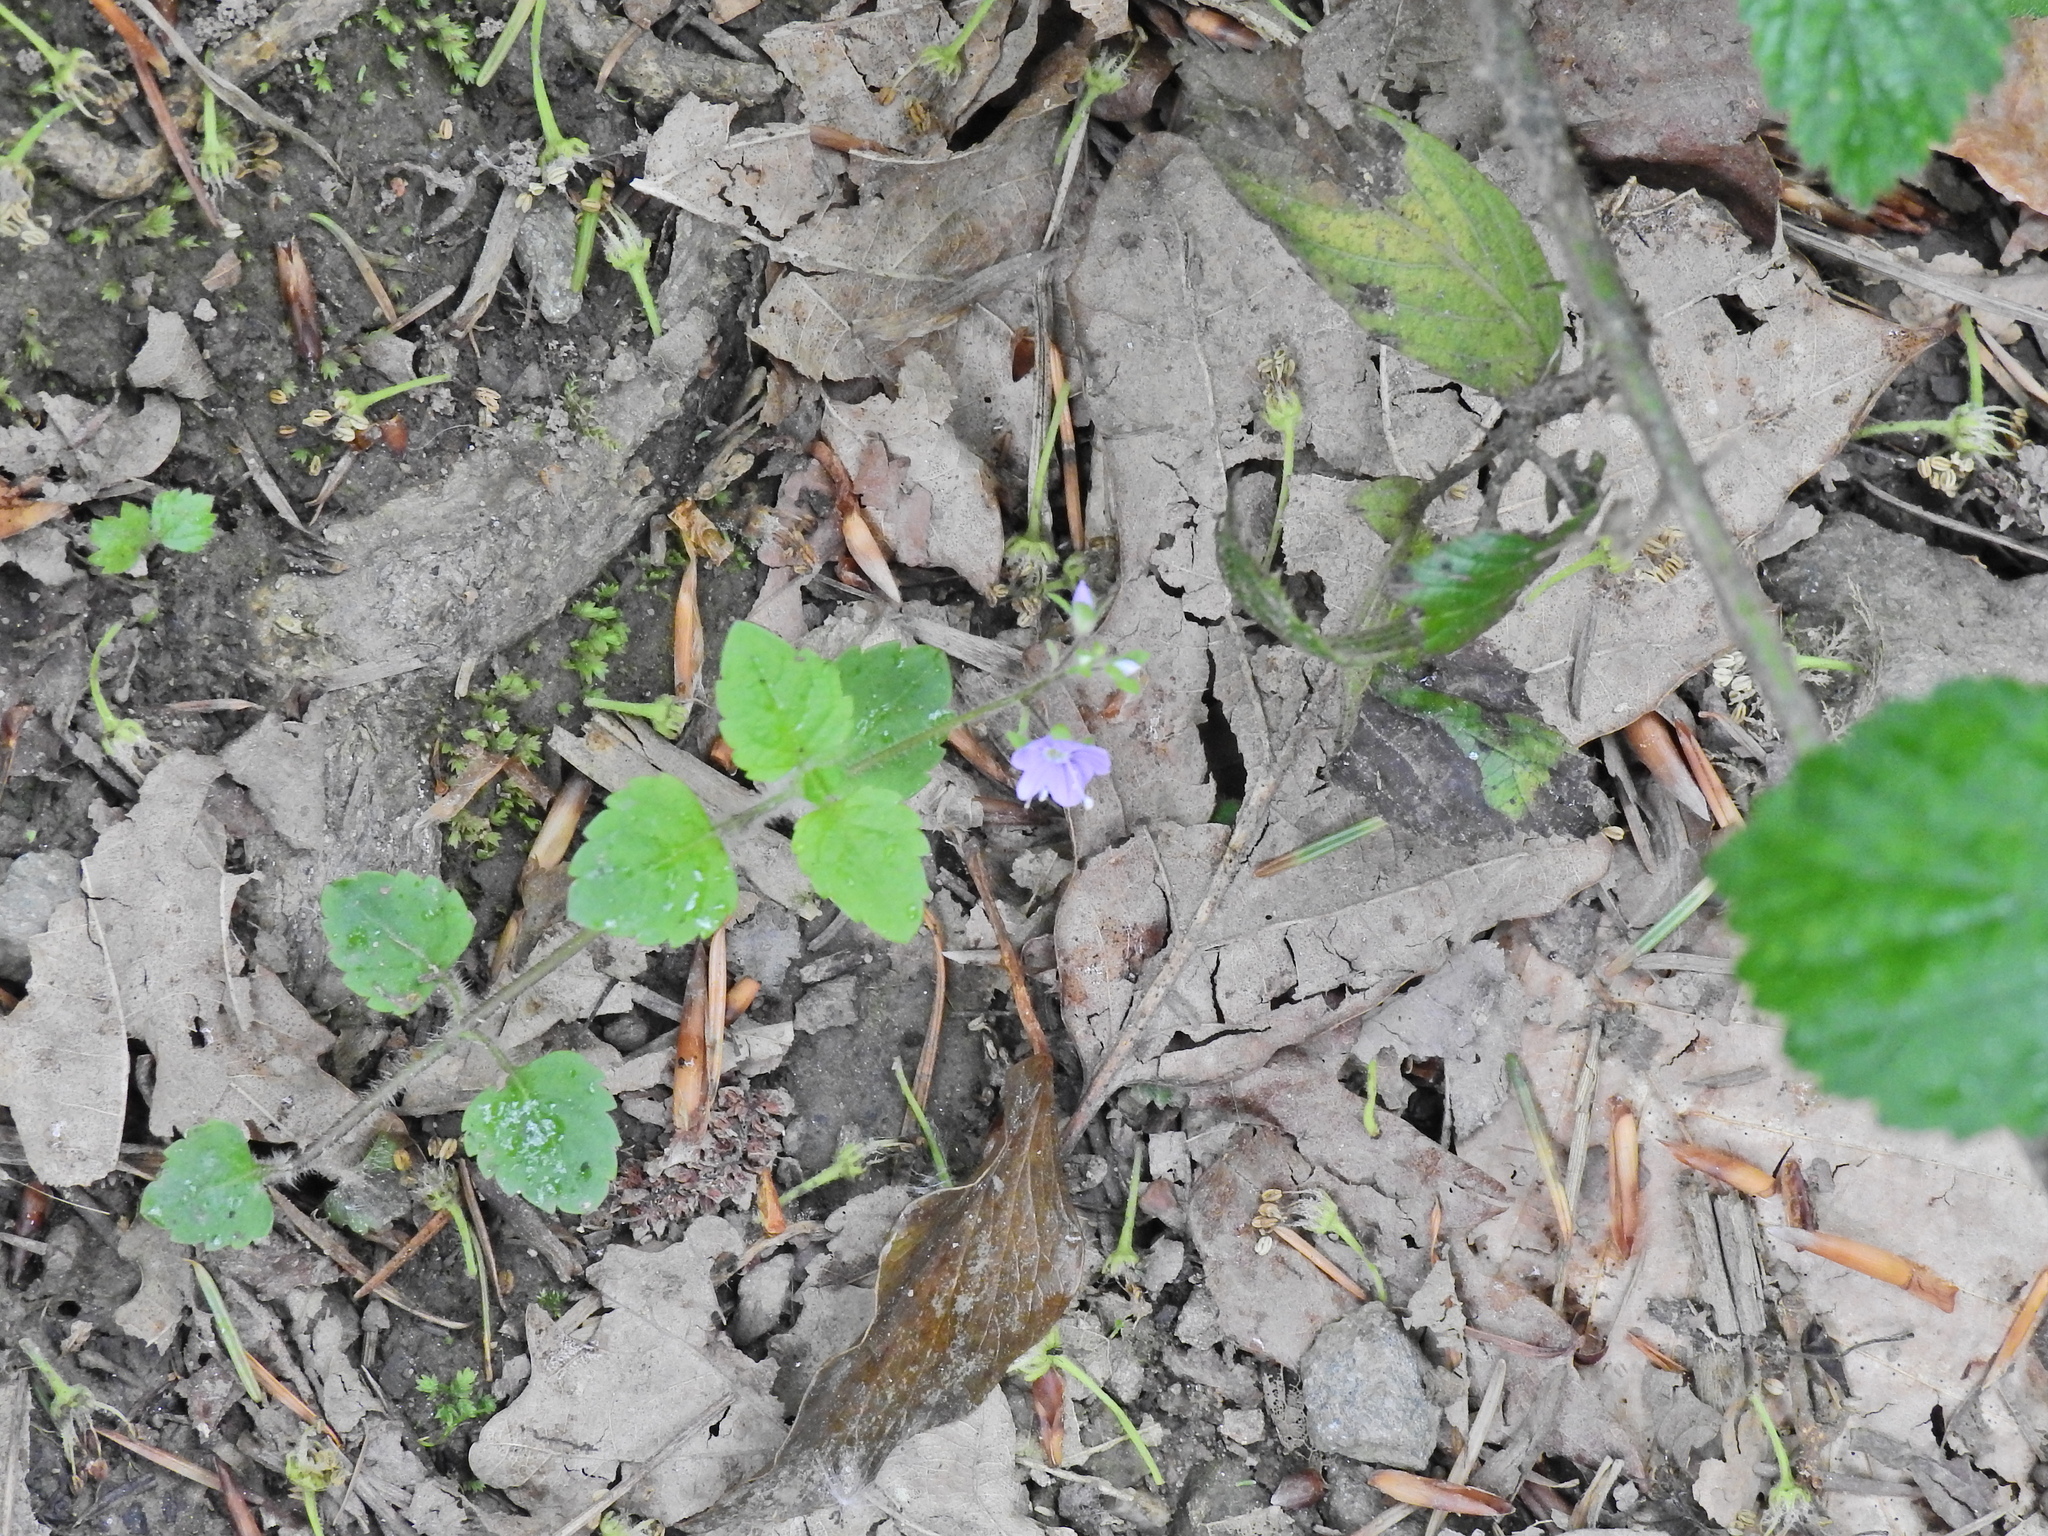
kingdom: Plantae
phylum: Tracheophyta
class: Magnoliopsida
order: Lamiales
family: Plantaginaceae
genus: Veronica
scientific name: Veronica montana
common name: Wood speedwell
